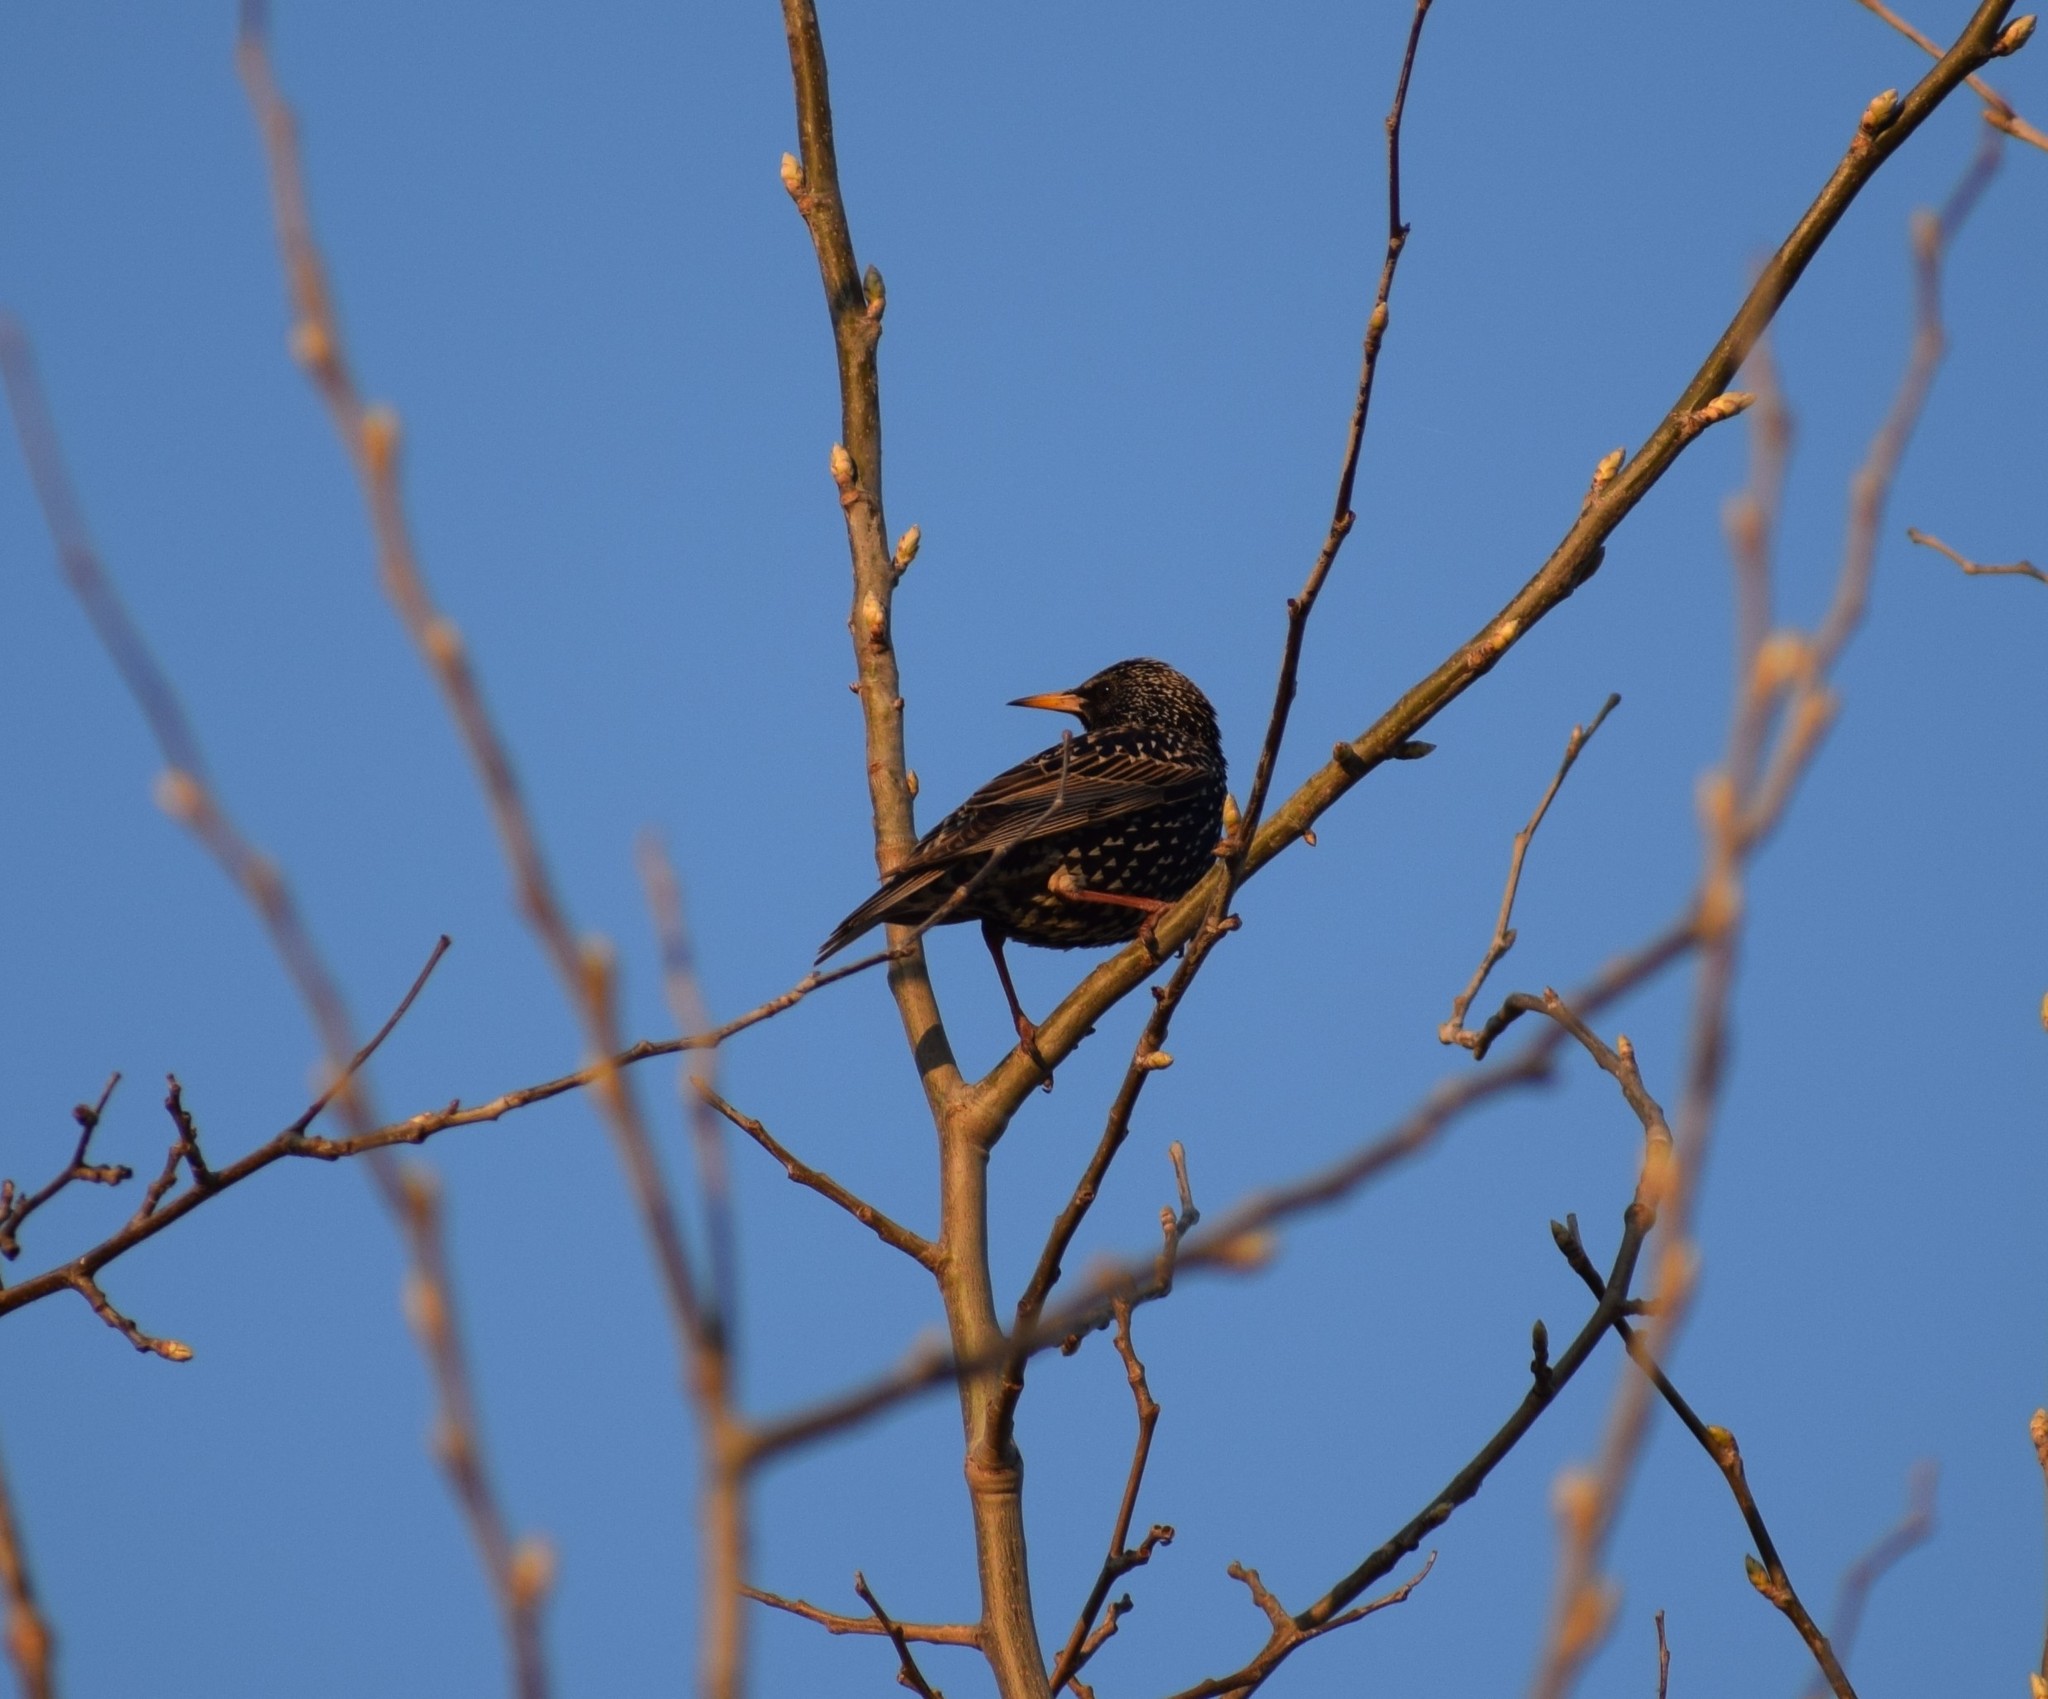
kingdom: Animalia
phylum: Chordata
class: Aves
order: Passeriformes
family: Sturnidae
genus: Sturnus
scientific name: Sturnus vulgaris
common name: Common starling
